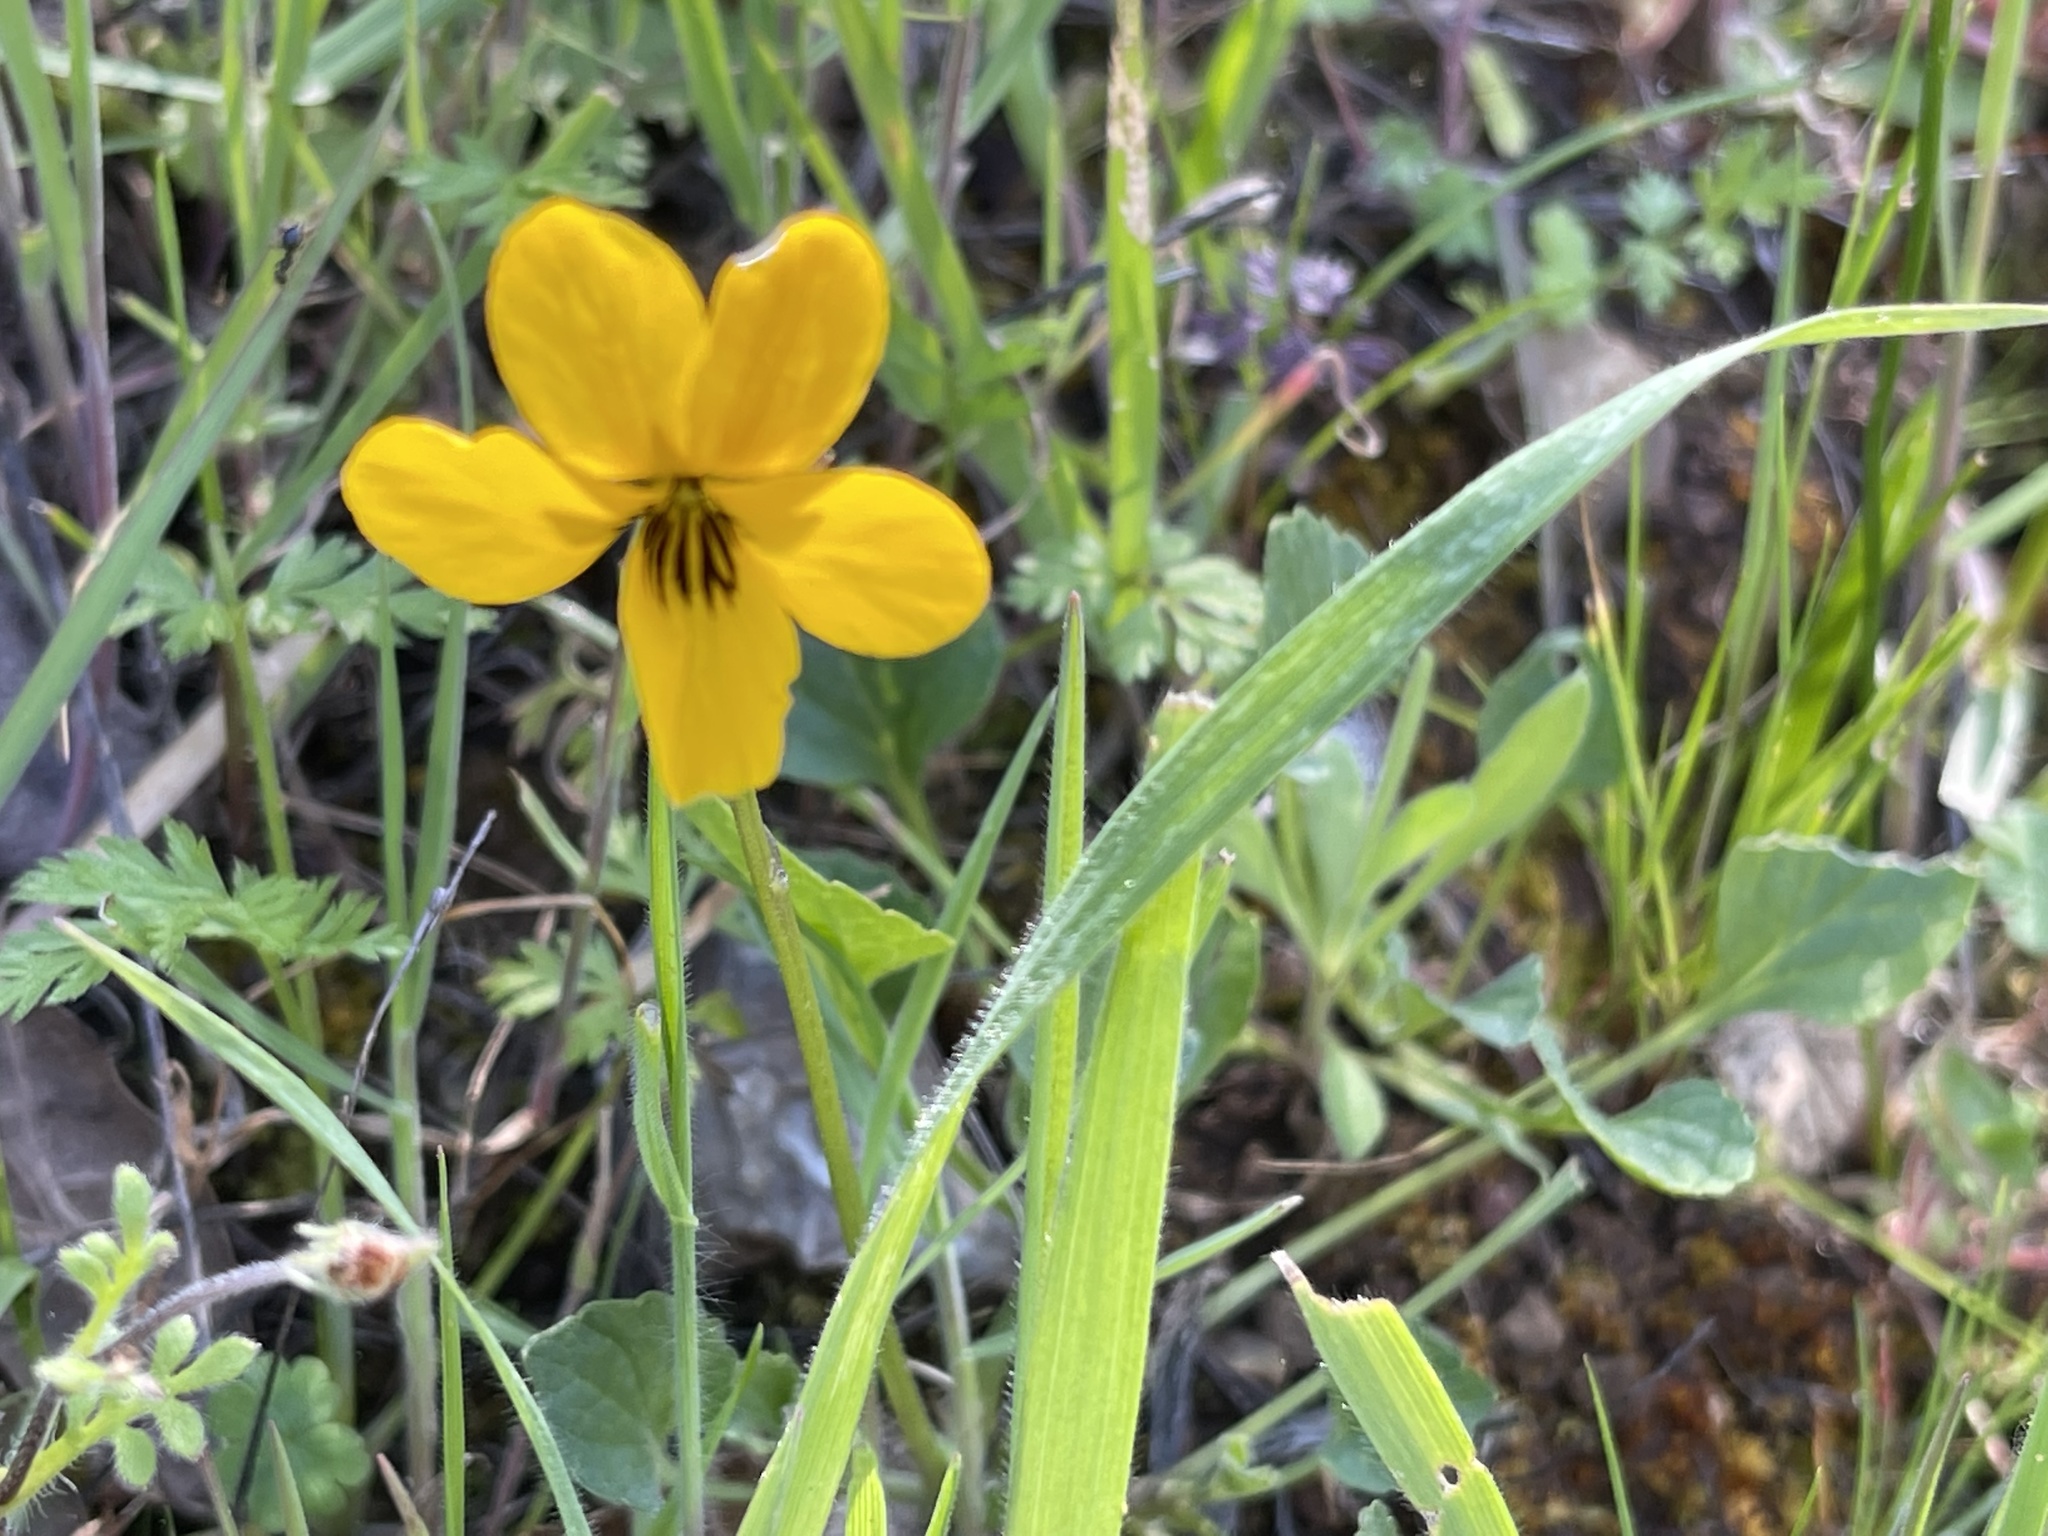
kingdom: Plantae
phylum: Tracheophyta
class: Magnoliopsida
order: Malpighiales
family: Violaceae
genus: Viola
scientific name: Viola pedunculata
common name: California golden violet
